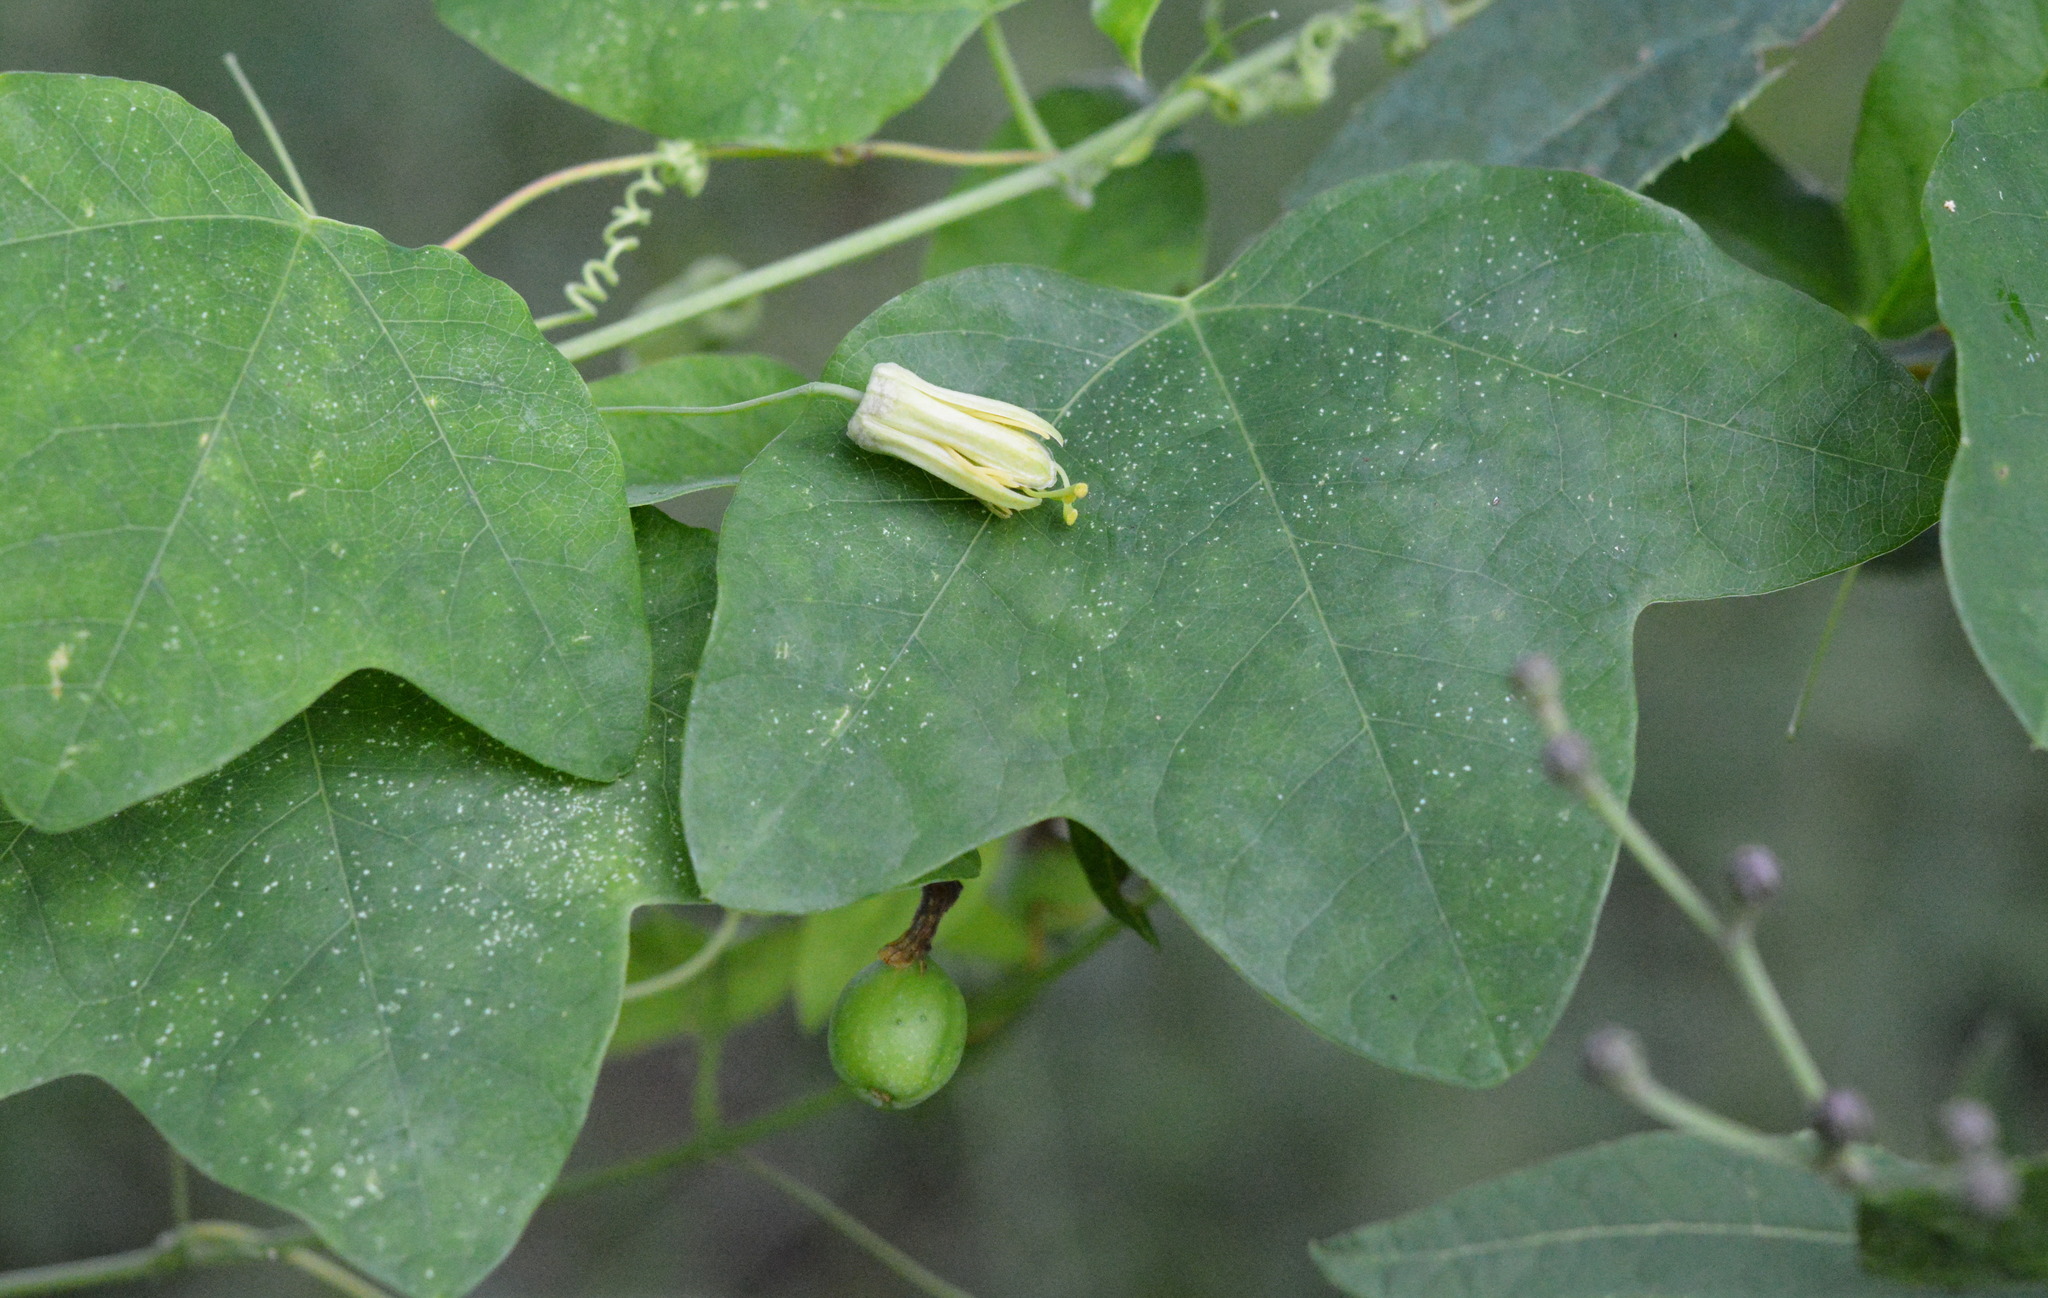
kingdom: Plantae
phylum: Tracheophyta
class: Magnoliopsida
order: Malpighiales
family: Passifloraceae
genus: Passiflora
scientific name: Passiflora lutea
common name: Yellow passionflower
